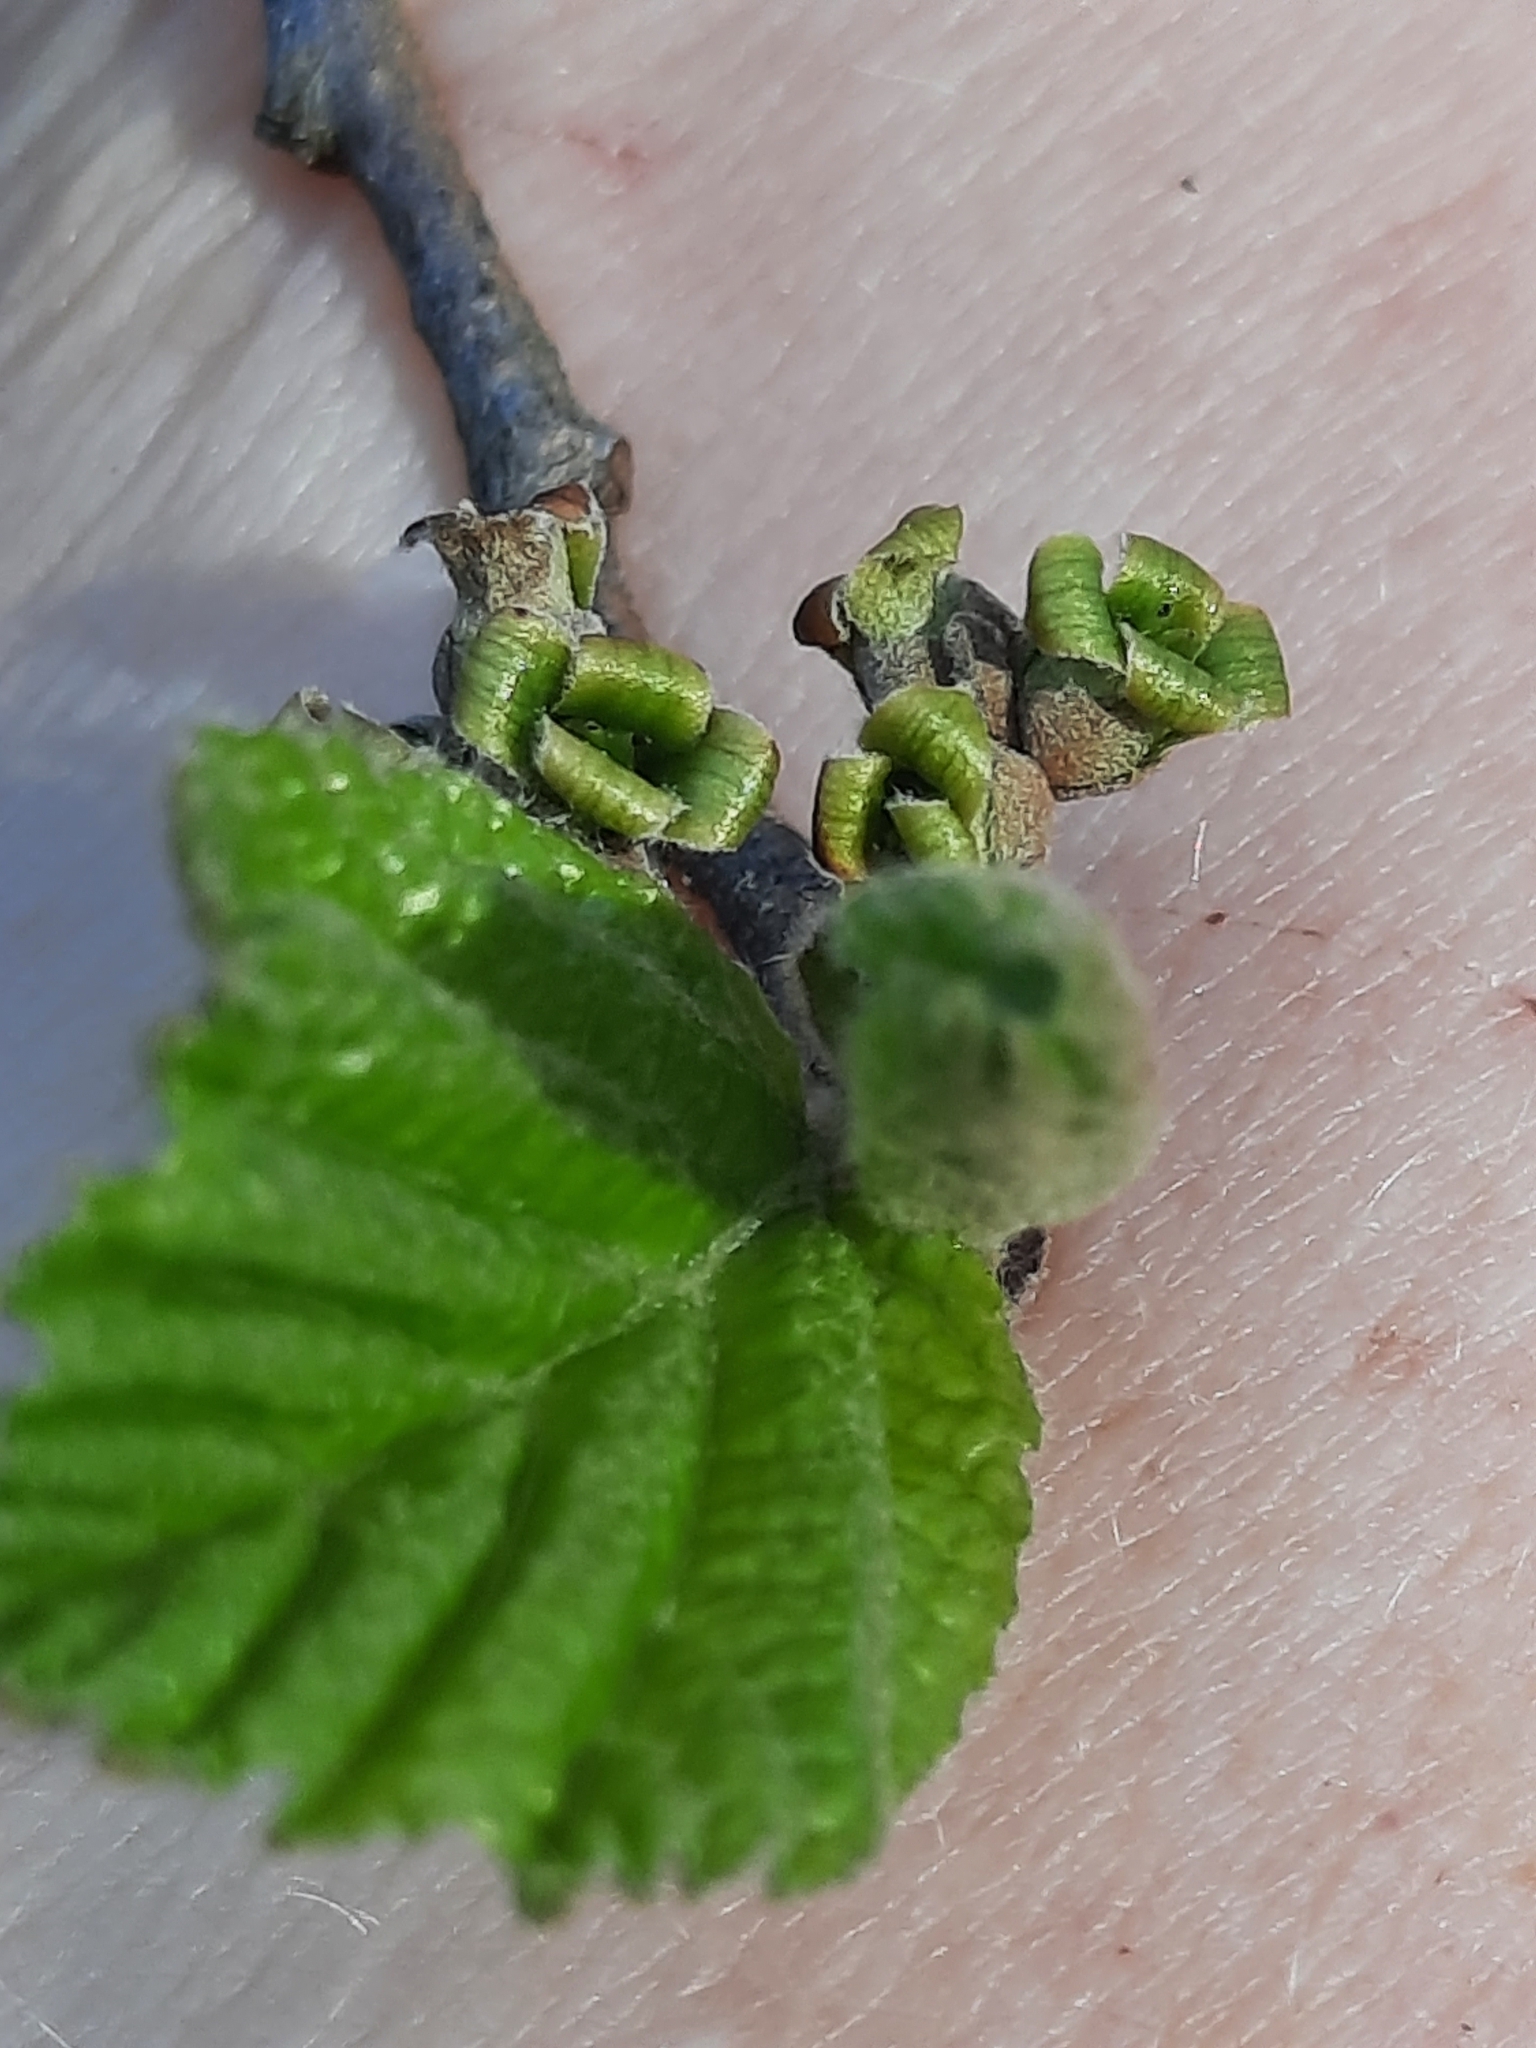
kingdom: Plantae
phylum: Tracheophyta
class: Magnoliopsida
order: Saxifragales
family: Hamamelidaceae
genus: Hamamelis
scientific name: Hamamelis virginiana
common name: Witch-hazel
